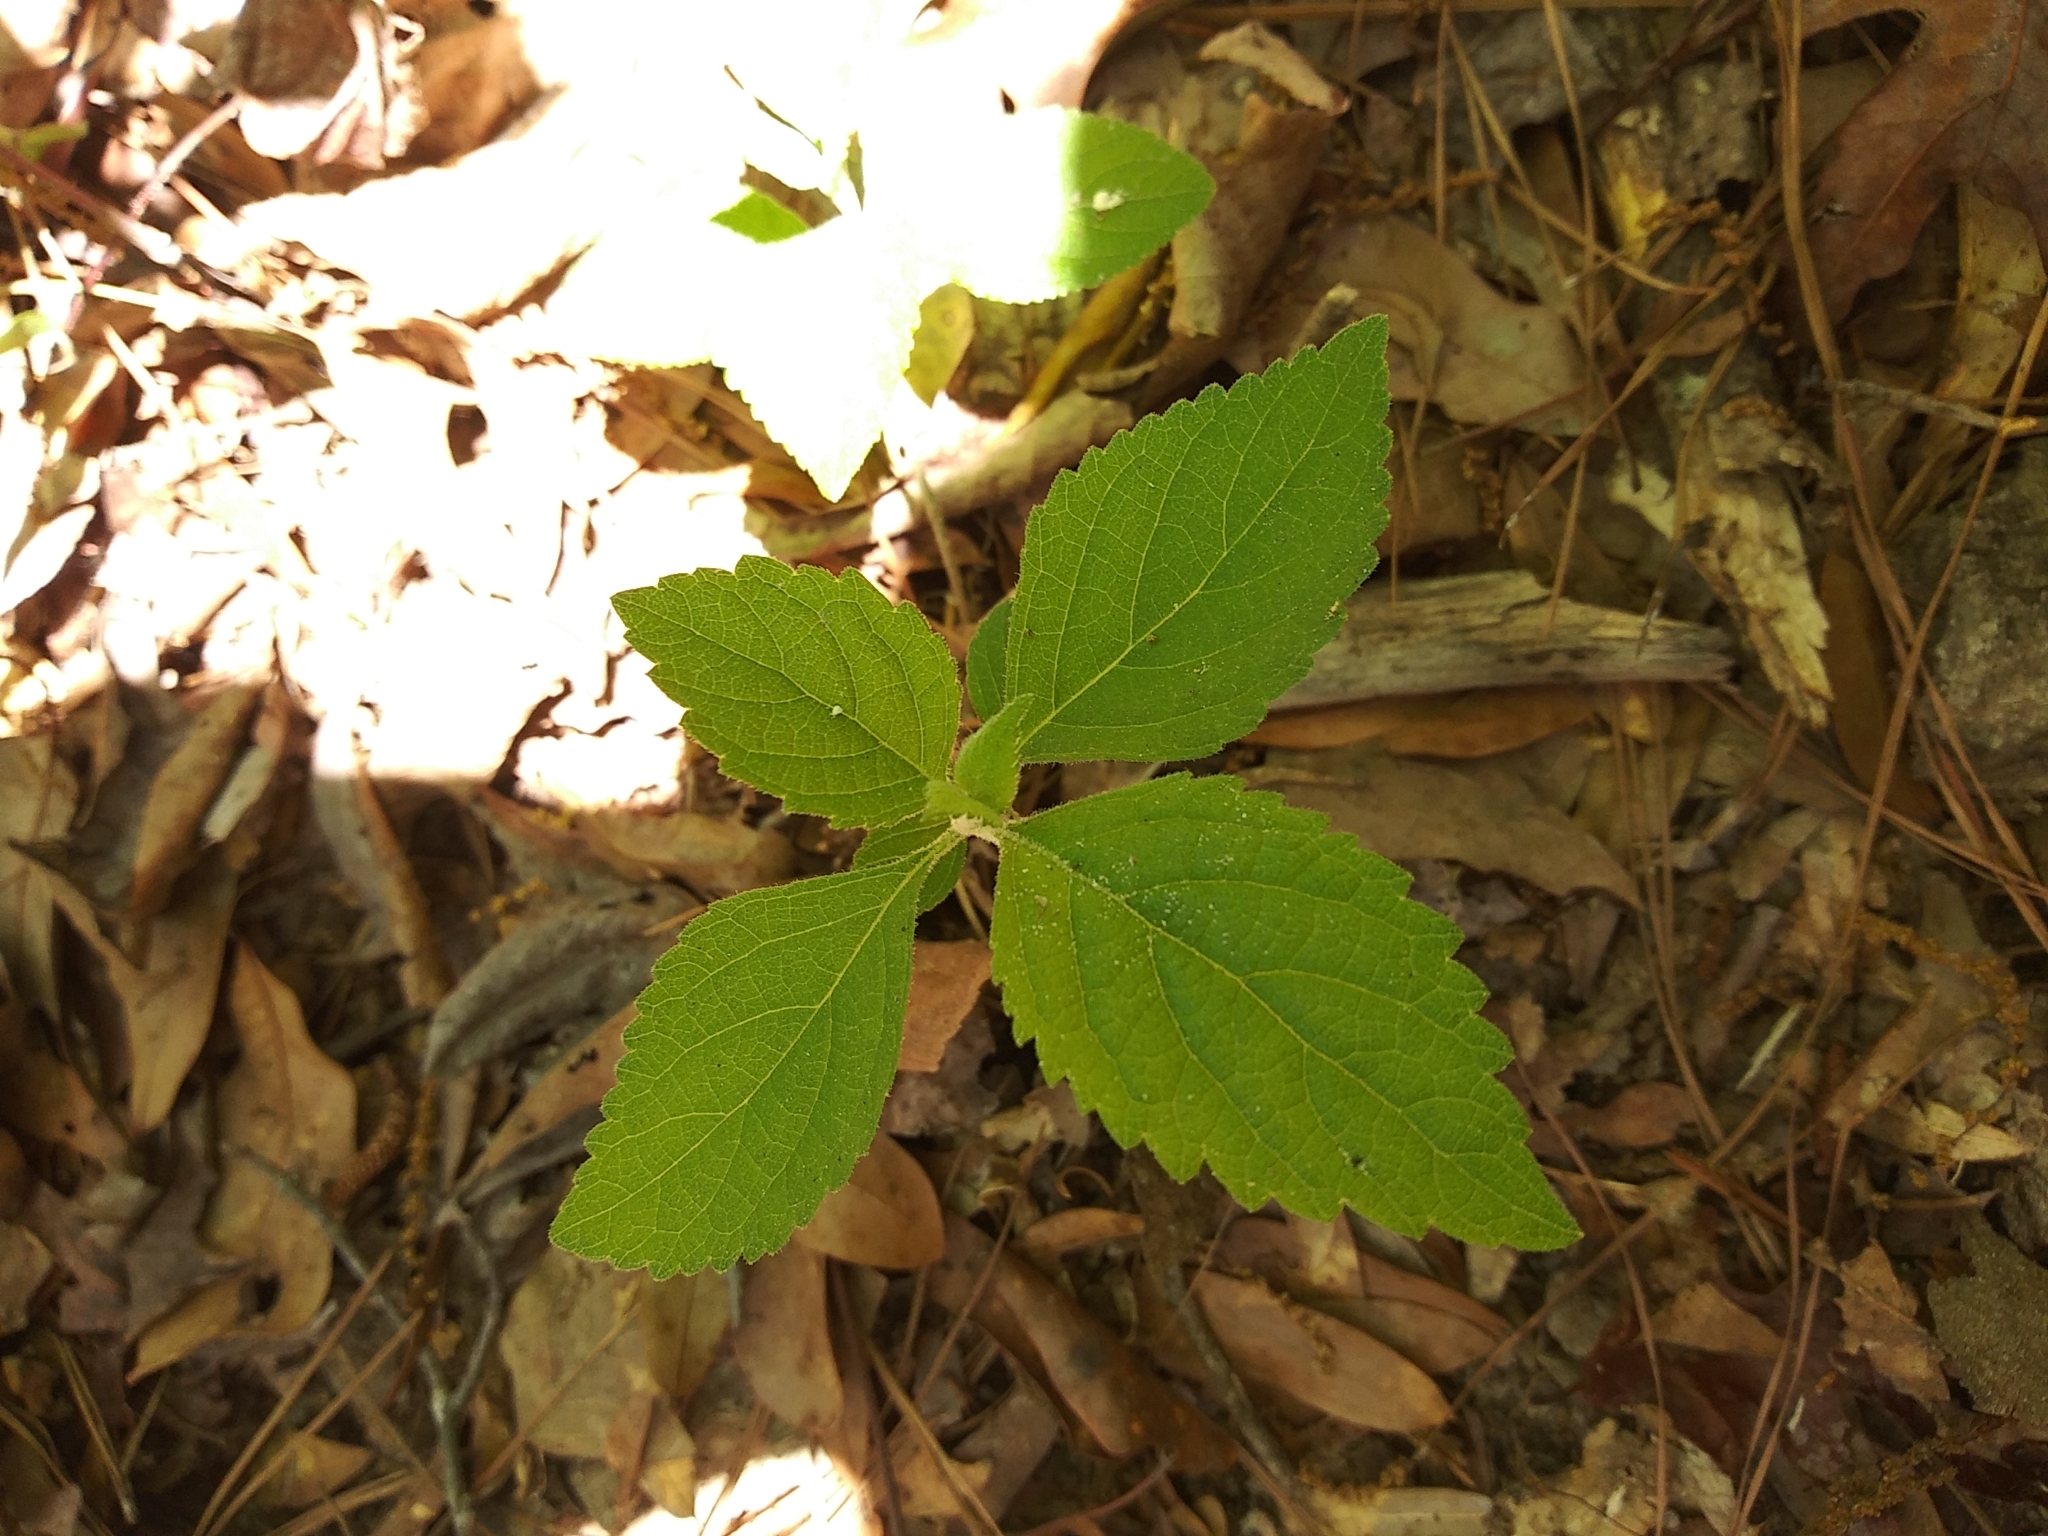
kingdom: Plantae
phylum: Tracheophyta
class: Magnoliopsida
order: Lamiales
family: Lamiaceae
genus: Callicarpa
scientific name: Callicarpa americana
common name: American beautyberry
